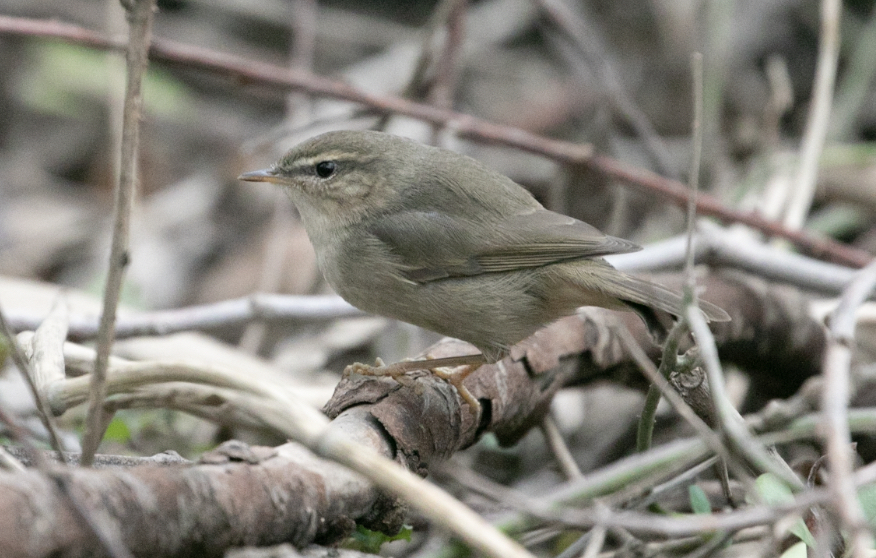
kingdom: Animalia
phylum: Chordata
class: Aves
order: Passeriformes
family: Phylloscopidae
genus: Phylloscopus
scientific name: Phylloscopus fuscatus
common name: Dusky warbler
